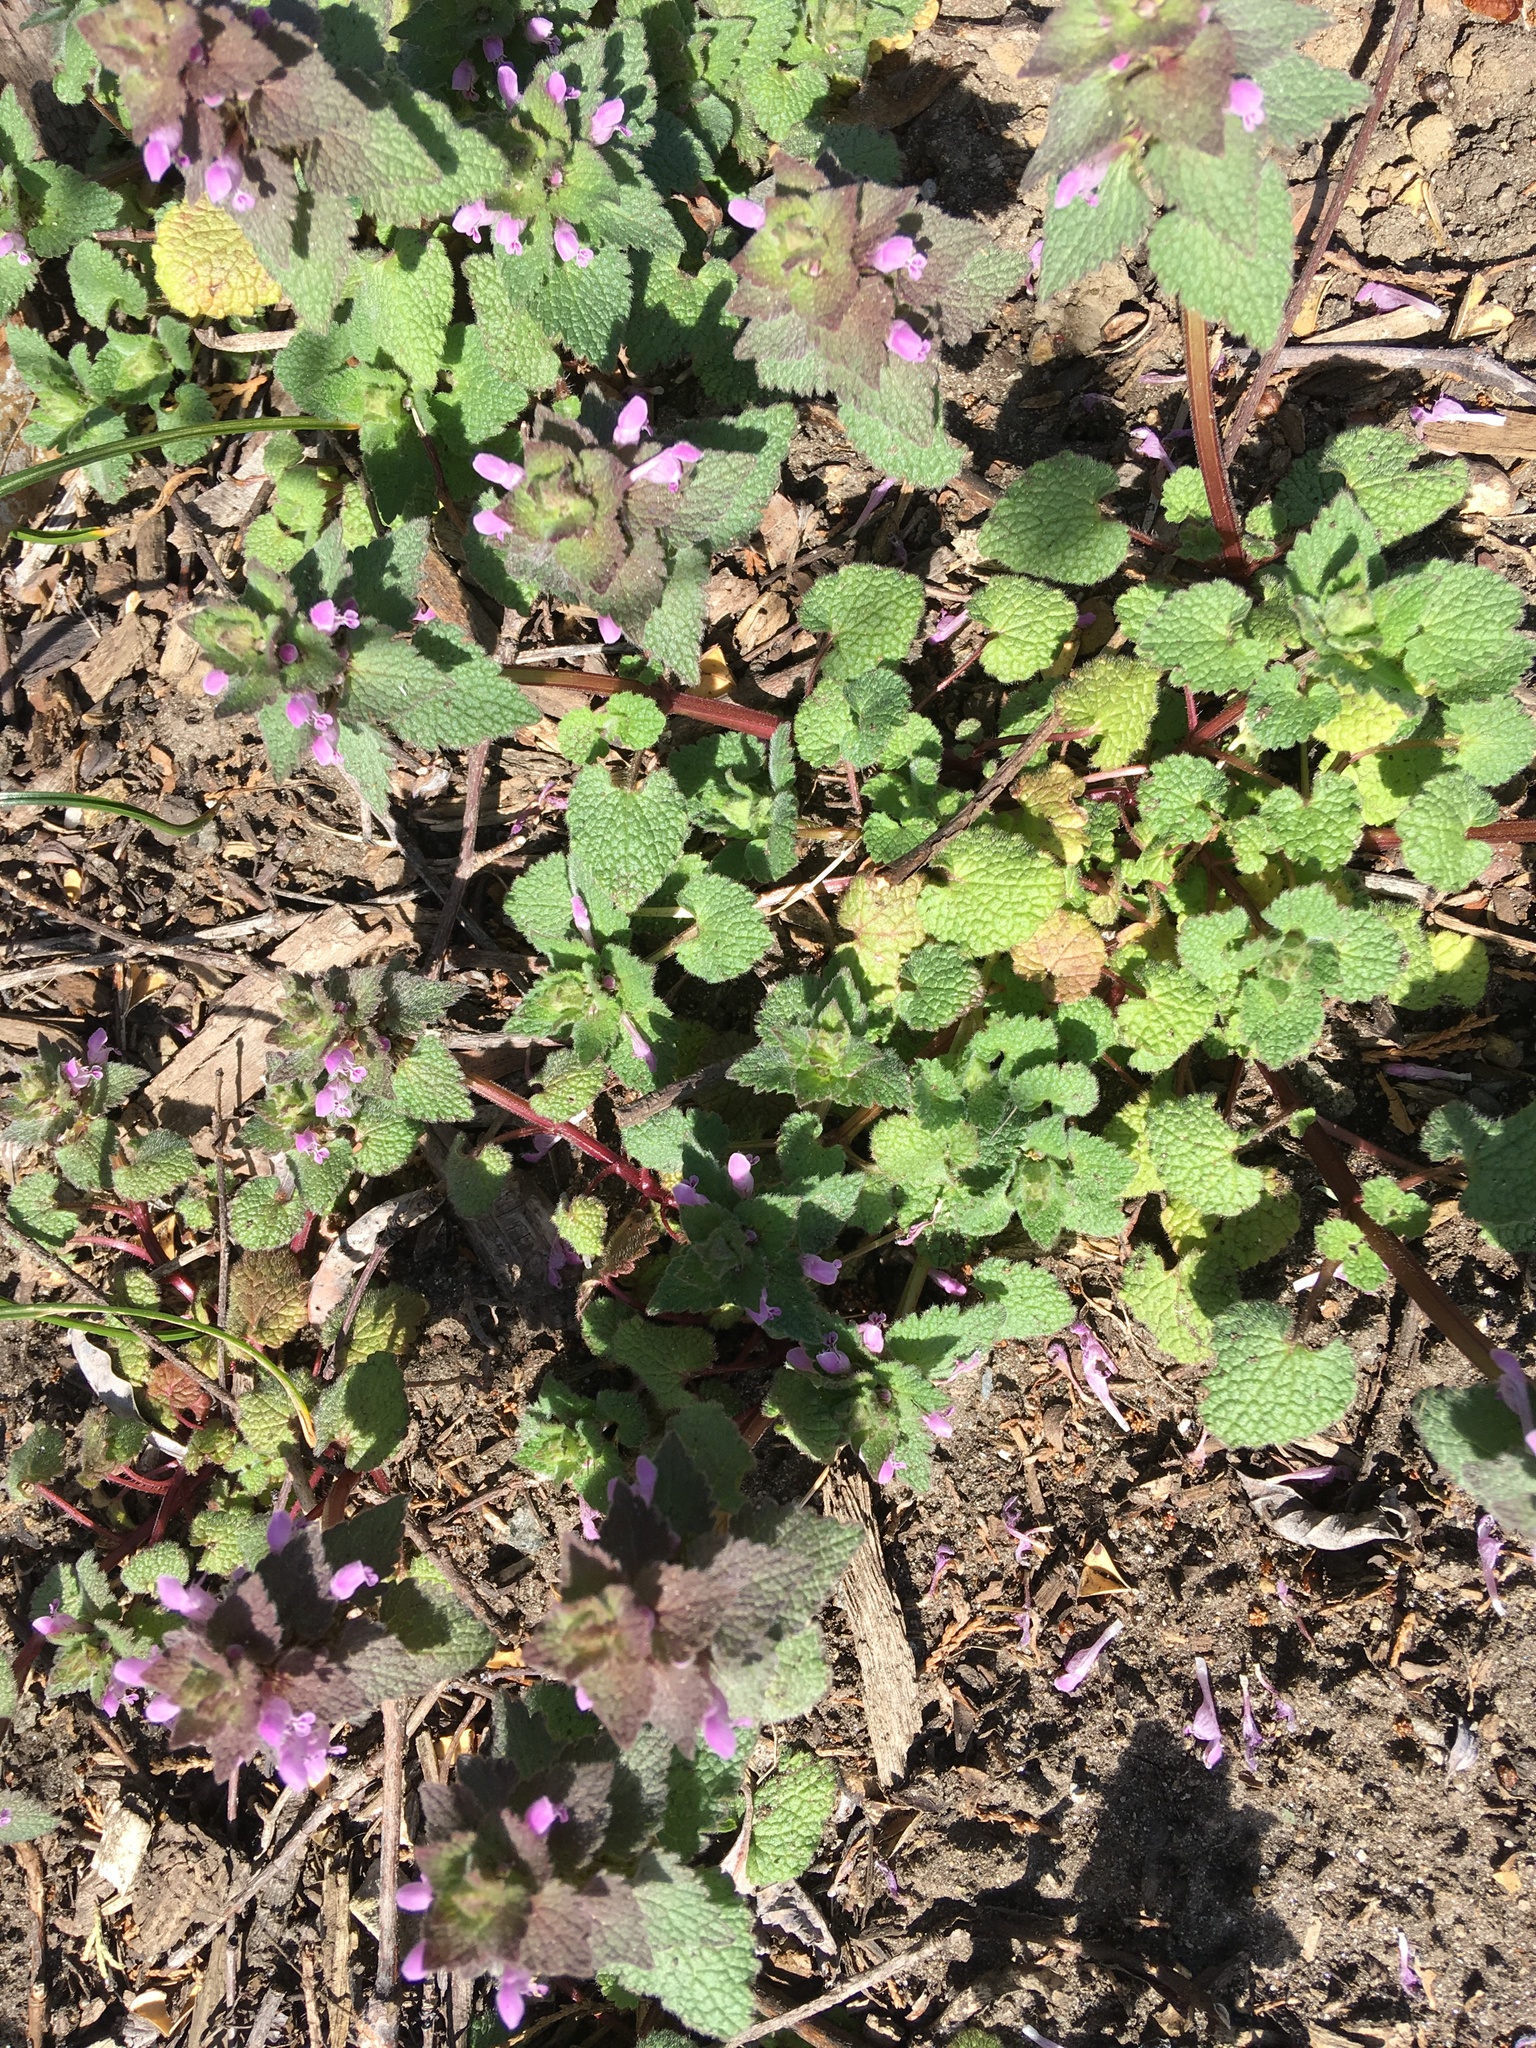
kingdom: Plantae
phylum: Tracheophyta
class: Magnoliopsida
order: Ranunculales
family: Ranunculaceae
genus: Ficaria
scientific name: Ficaria verna
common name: Lesser celandine
